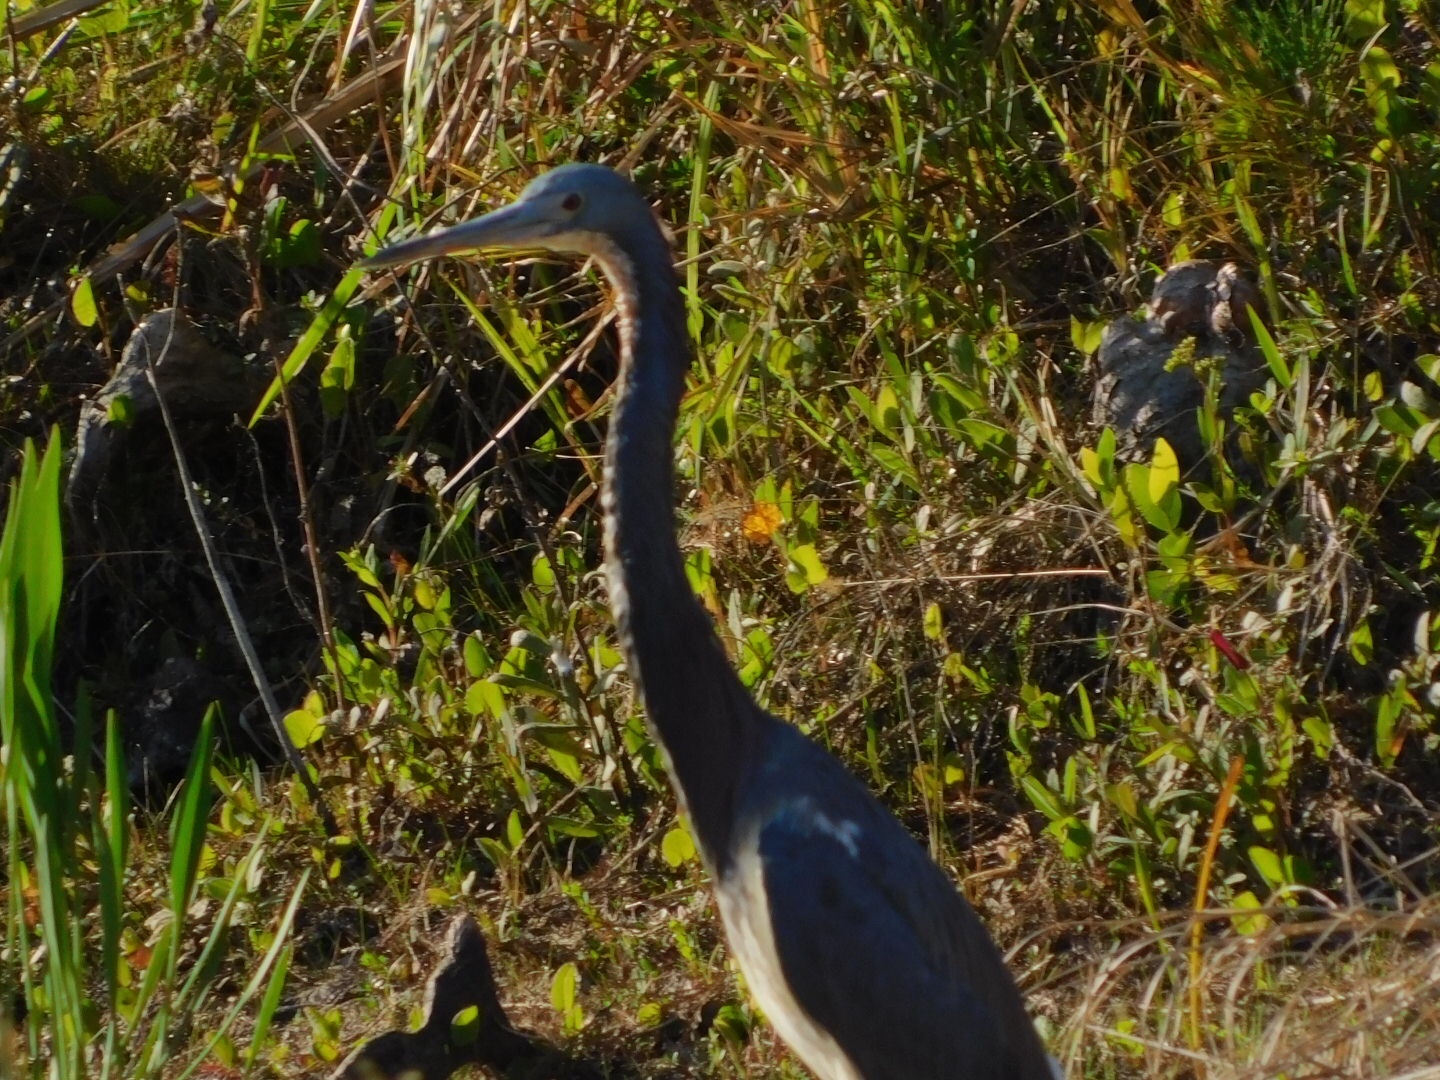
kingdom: Animalia
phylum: Chordata
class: Aves
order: Pelecaniformes
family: Ardeidae
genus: Egretta
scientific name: Egretta tricolor
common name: Tricolored heron
